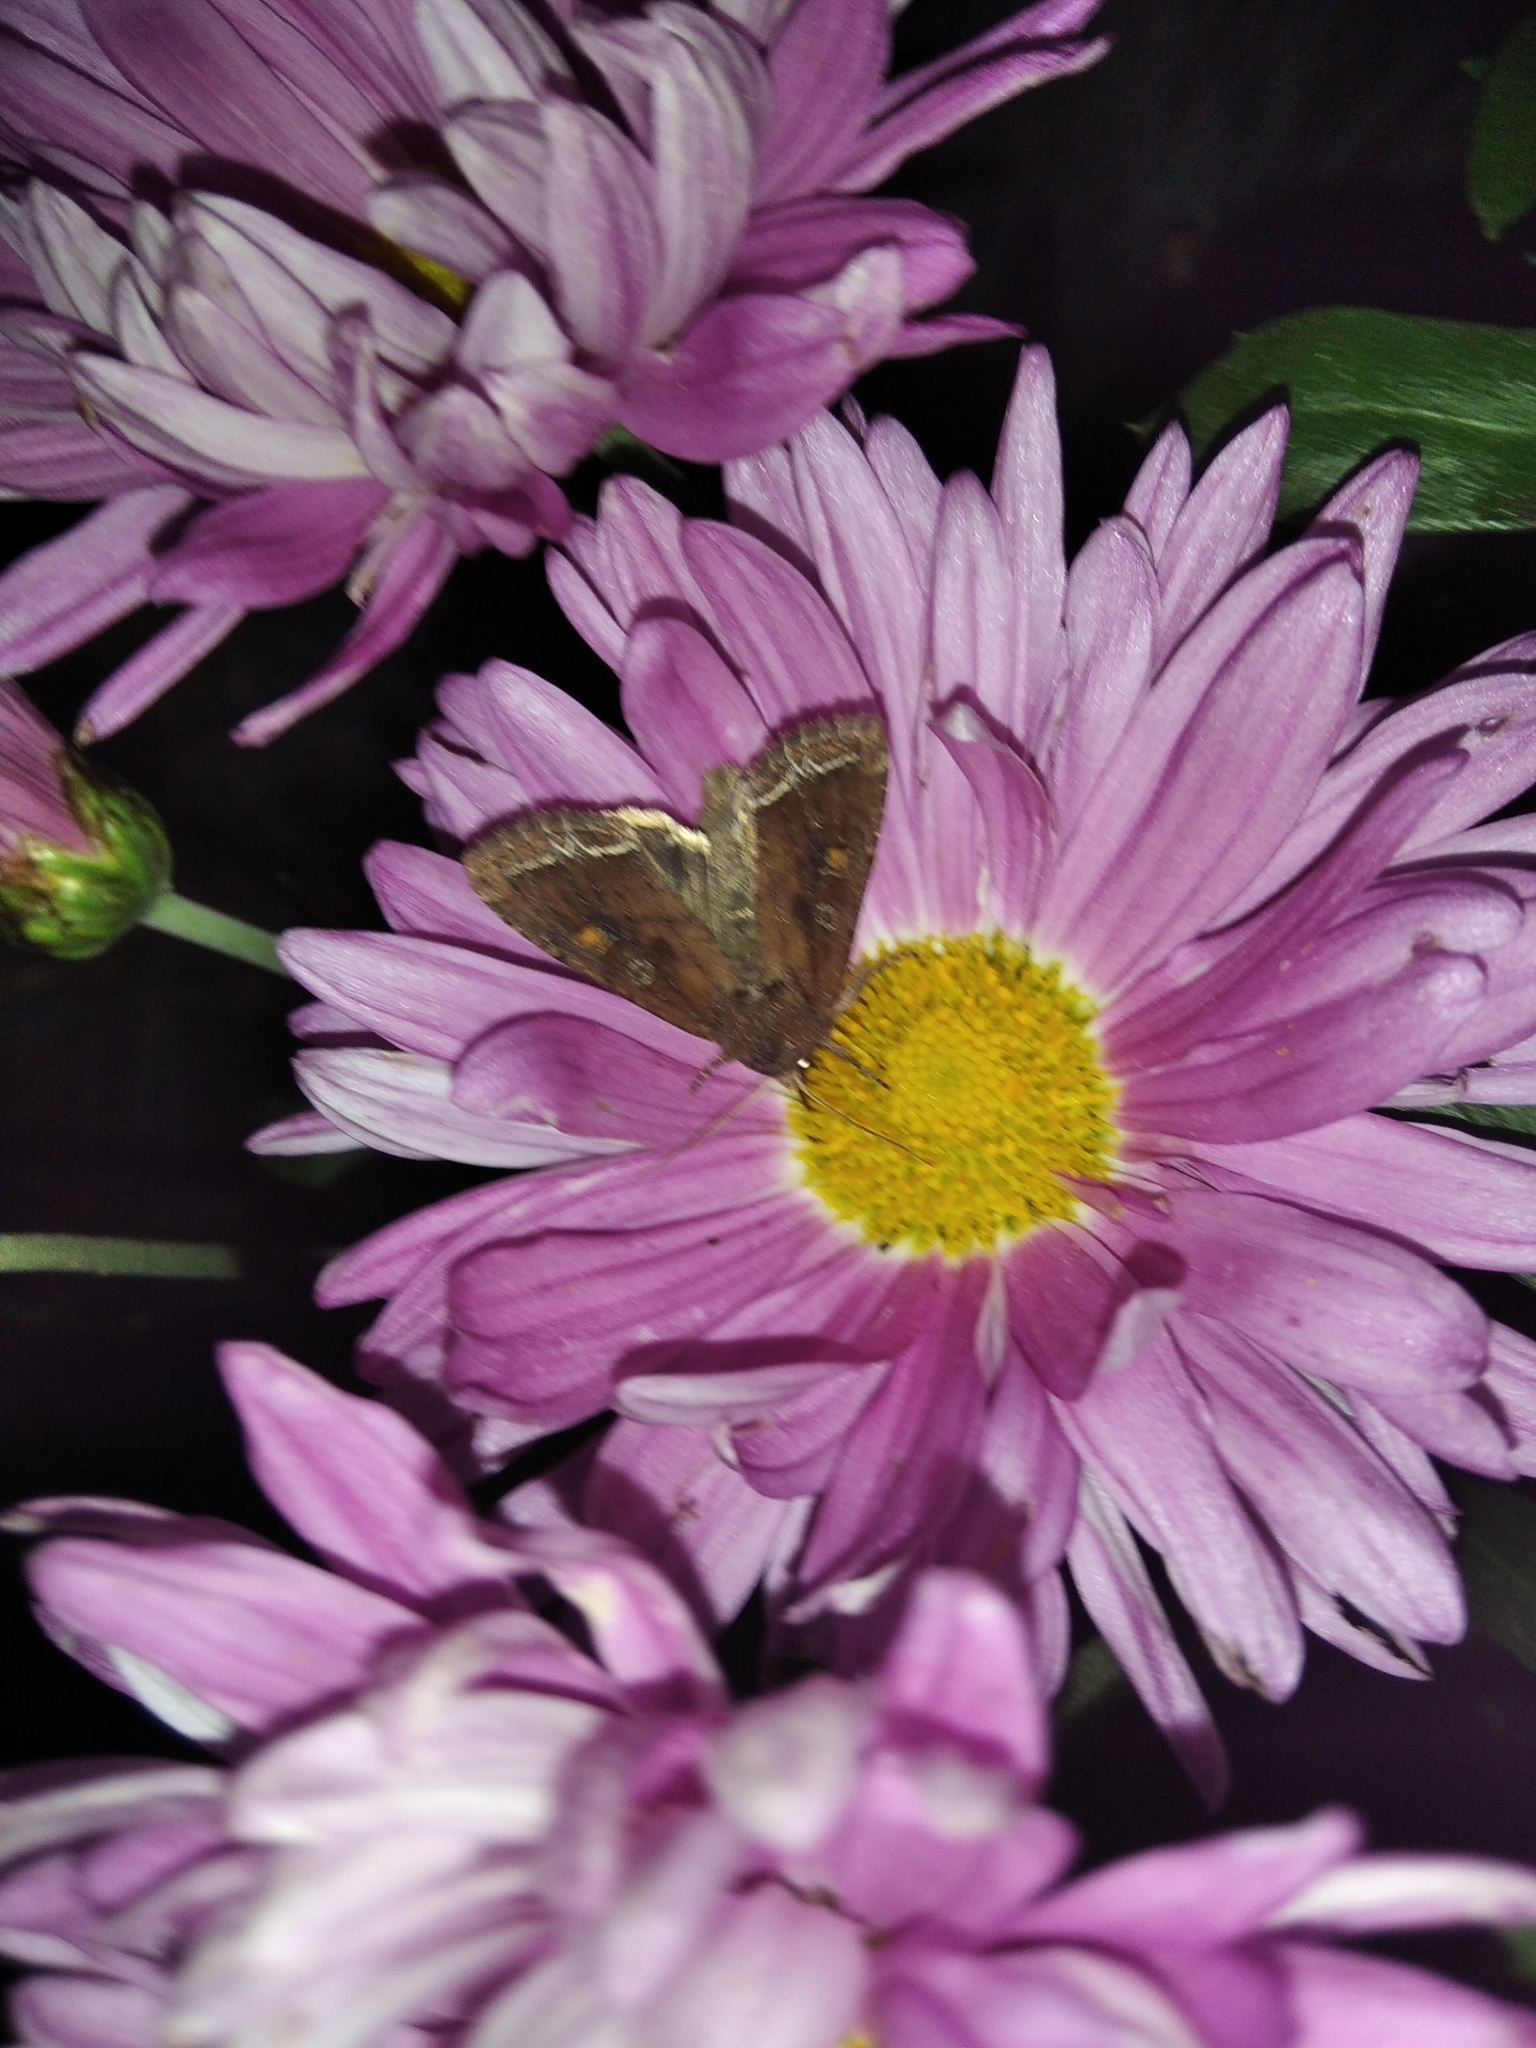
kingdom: Animalia
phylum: Arthropoda
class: Insecta
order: Lepidoptera
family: Noctuidae
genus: Lacanobia
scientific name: Lacanobia oleracea
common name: Bright-line brown-eye
